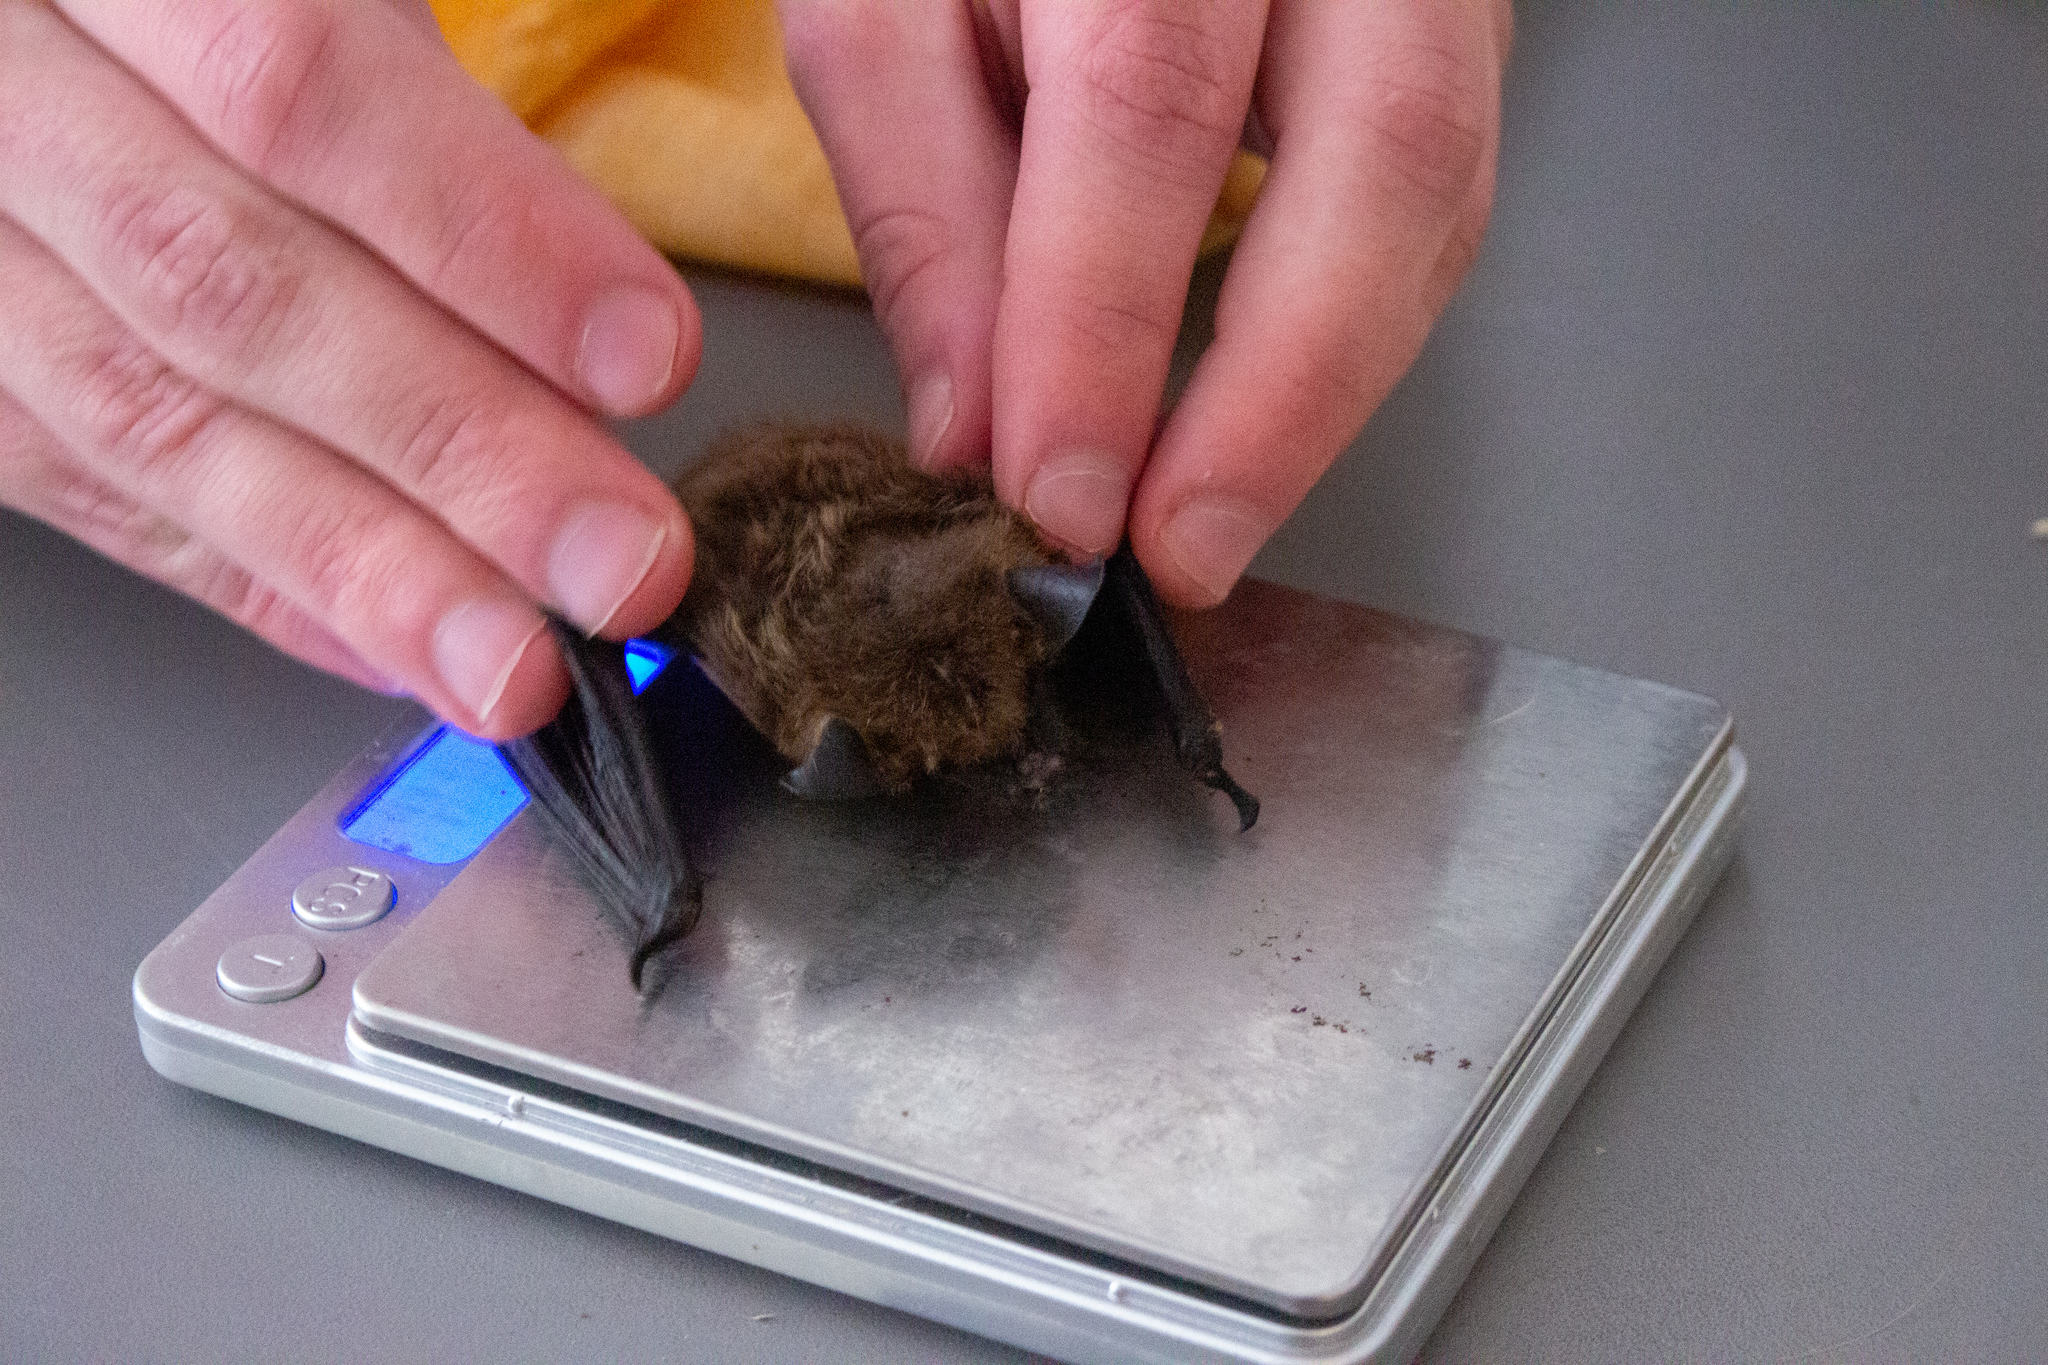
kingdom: Animalia
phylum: Chordata
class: Mammalia
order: Chiroptera
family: Vespertilionidae
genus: Eptesicus
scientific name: Eptesicus serotinus
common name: Serotine
